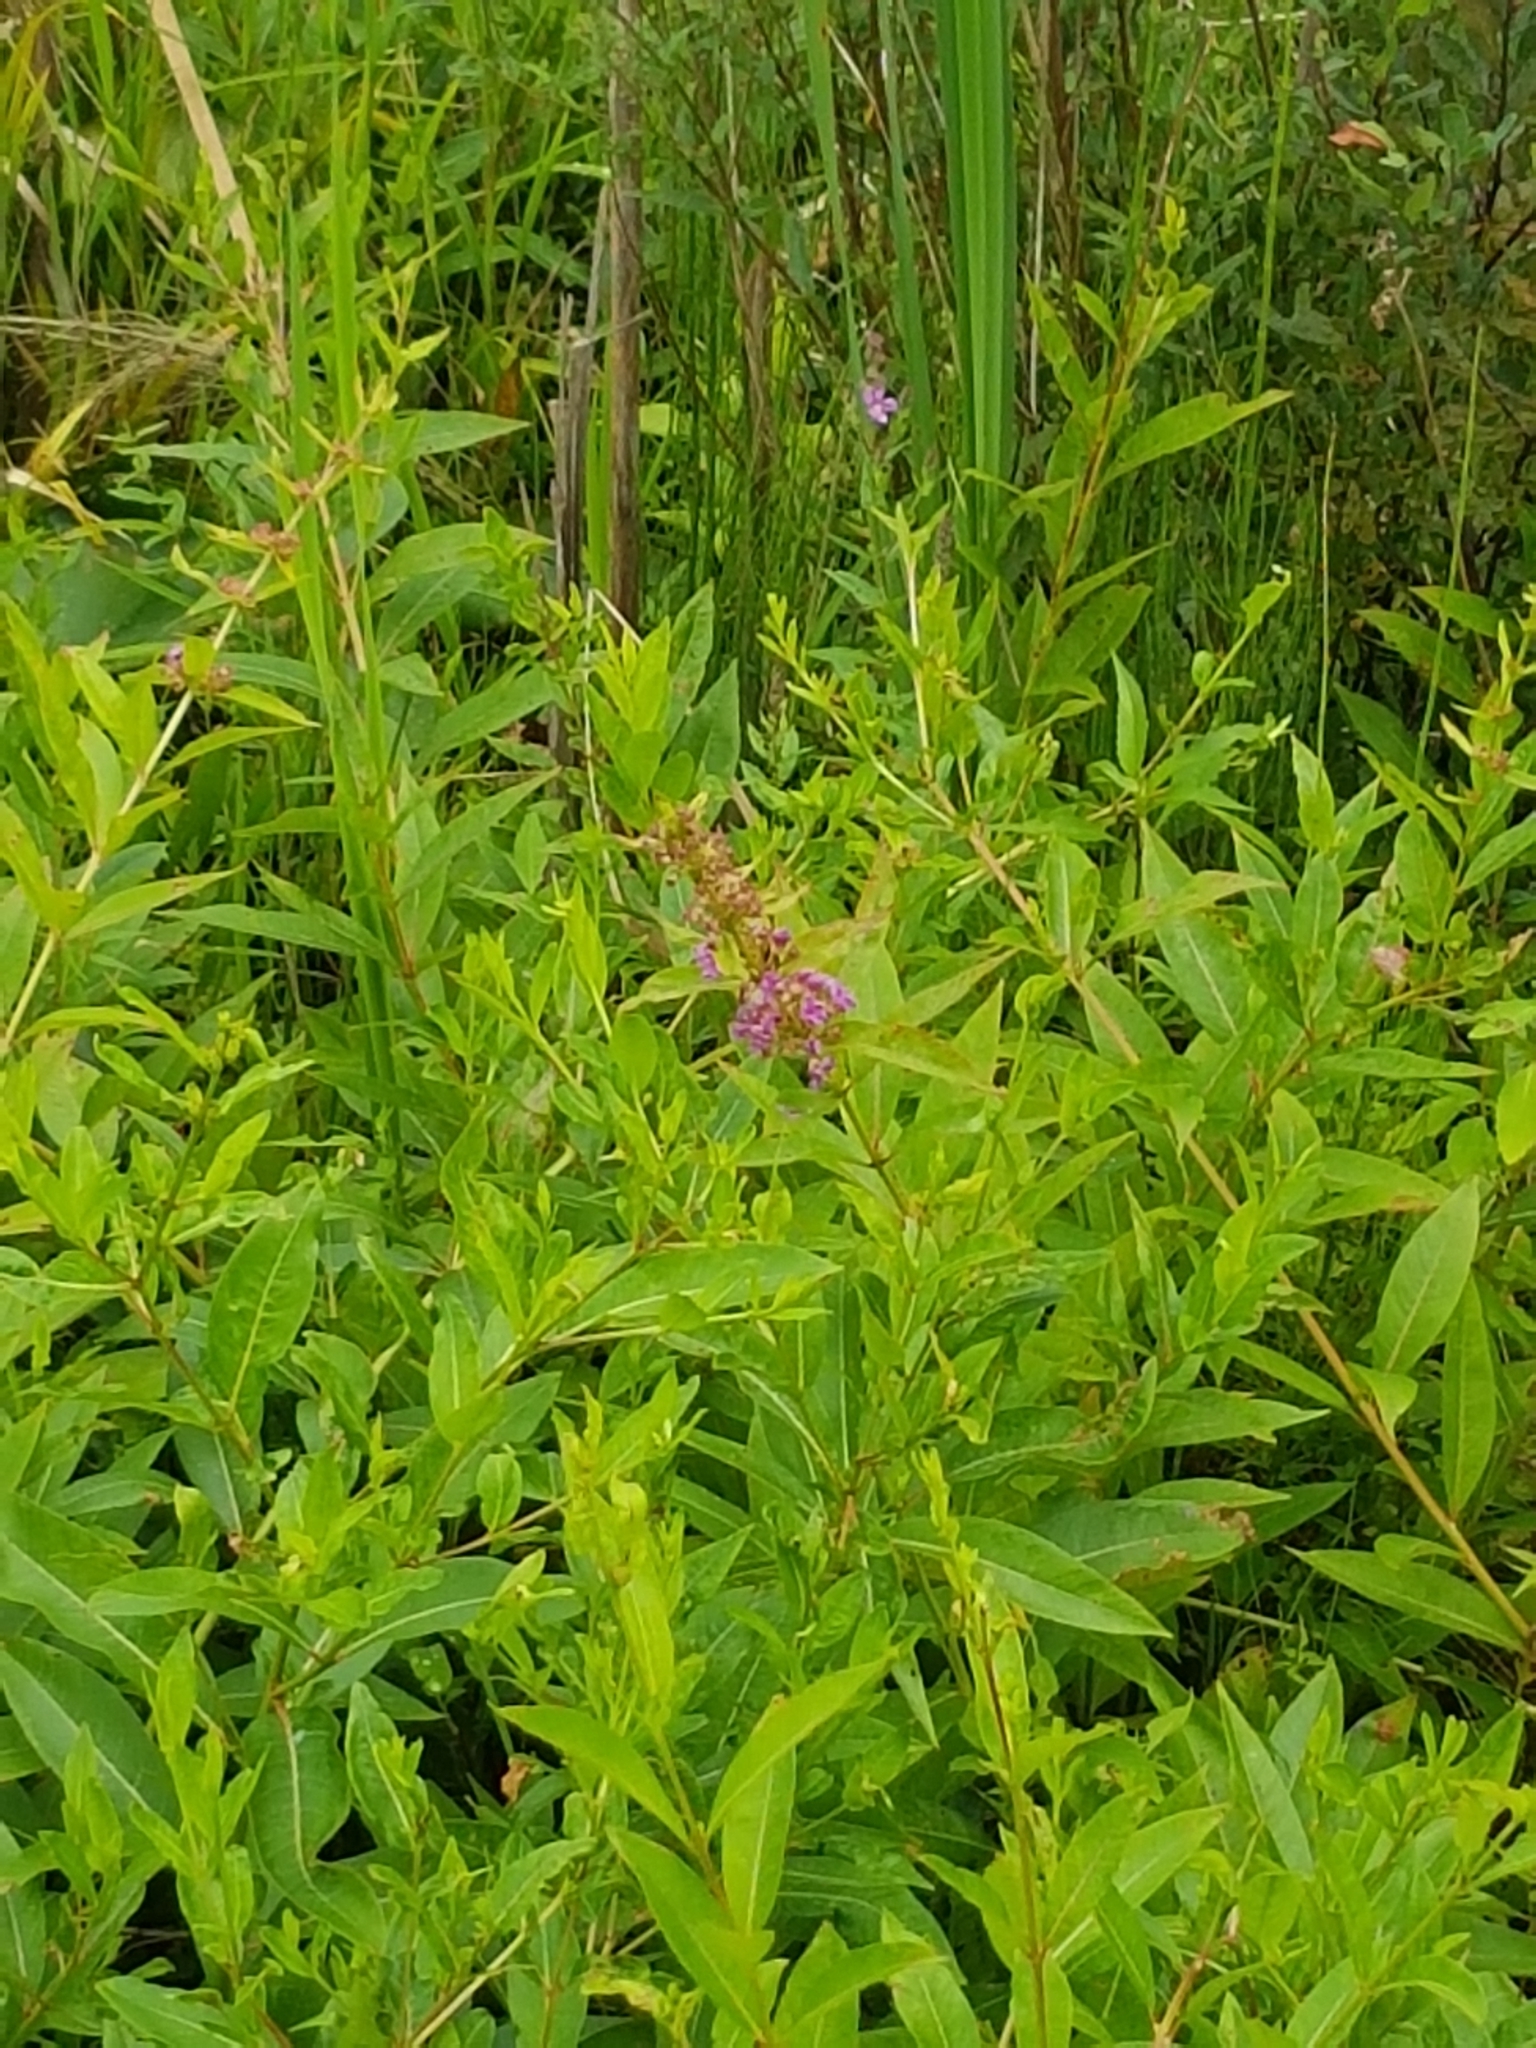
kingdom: Plantae
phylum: Tracheophyta
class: Magnoliopsida
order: Myrtales
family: Lythraceae
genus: Decodon
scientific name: Decodon verticillatus
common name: Hairy swamp loosestrife
